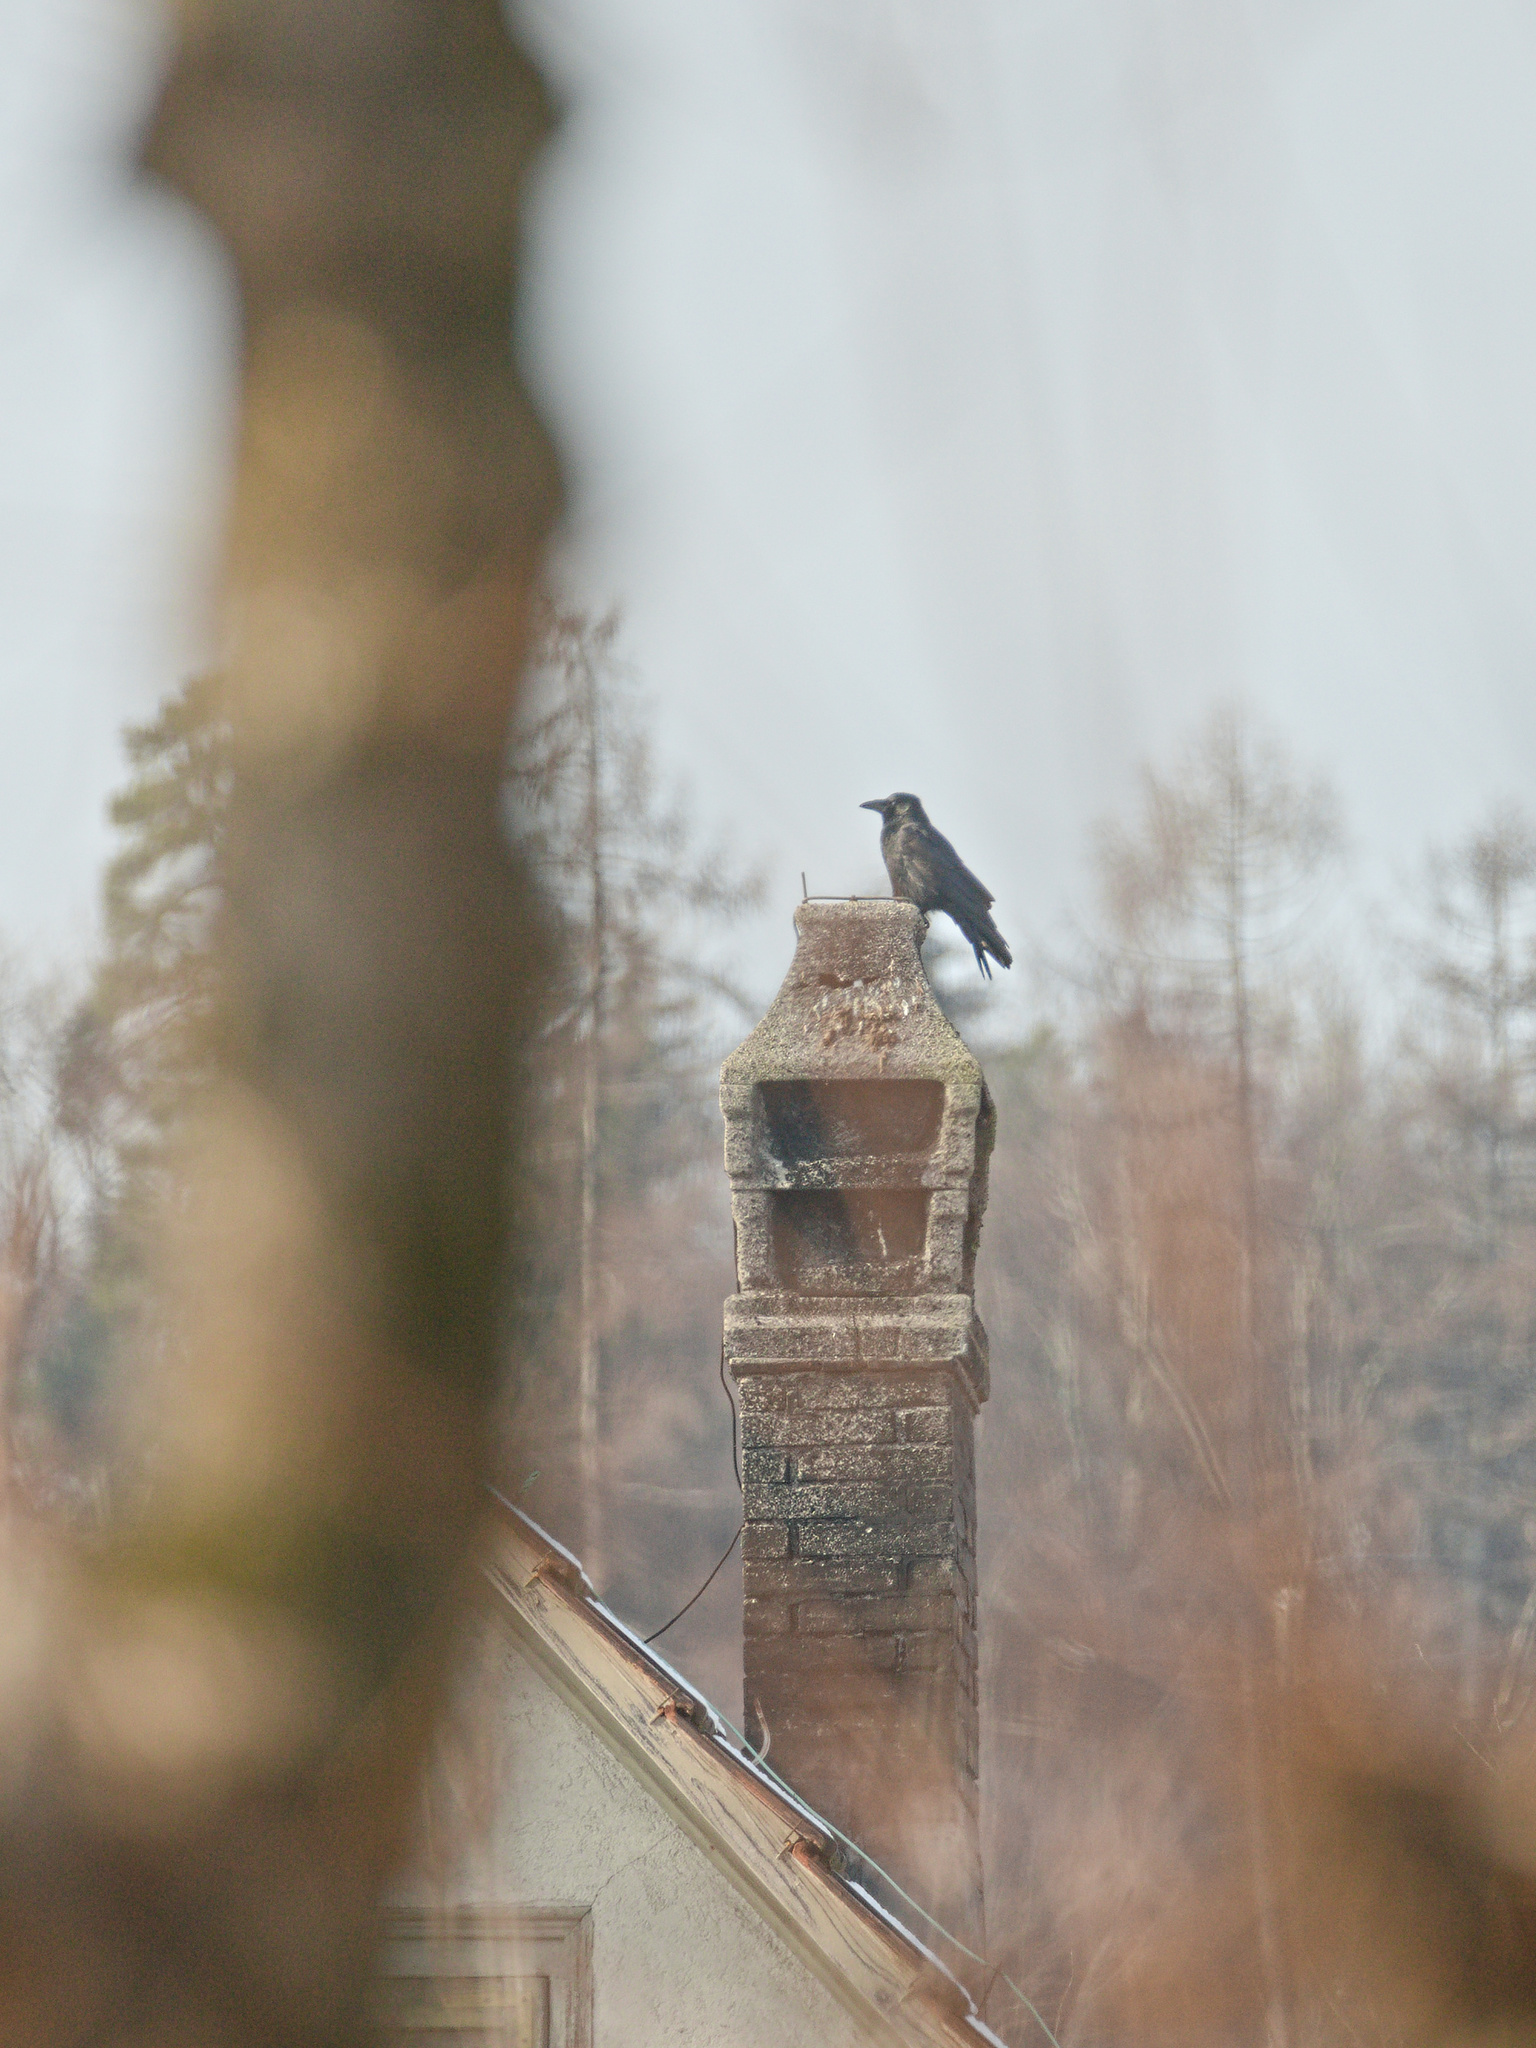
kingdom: Animalia
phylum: Chordata
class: Aves
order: Passeriformes
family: Corvidae
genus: Corvus
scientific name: Corvus corone
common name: Carrion crow
